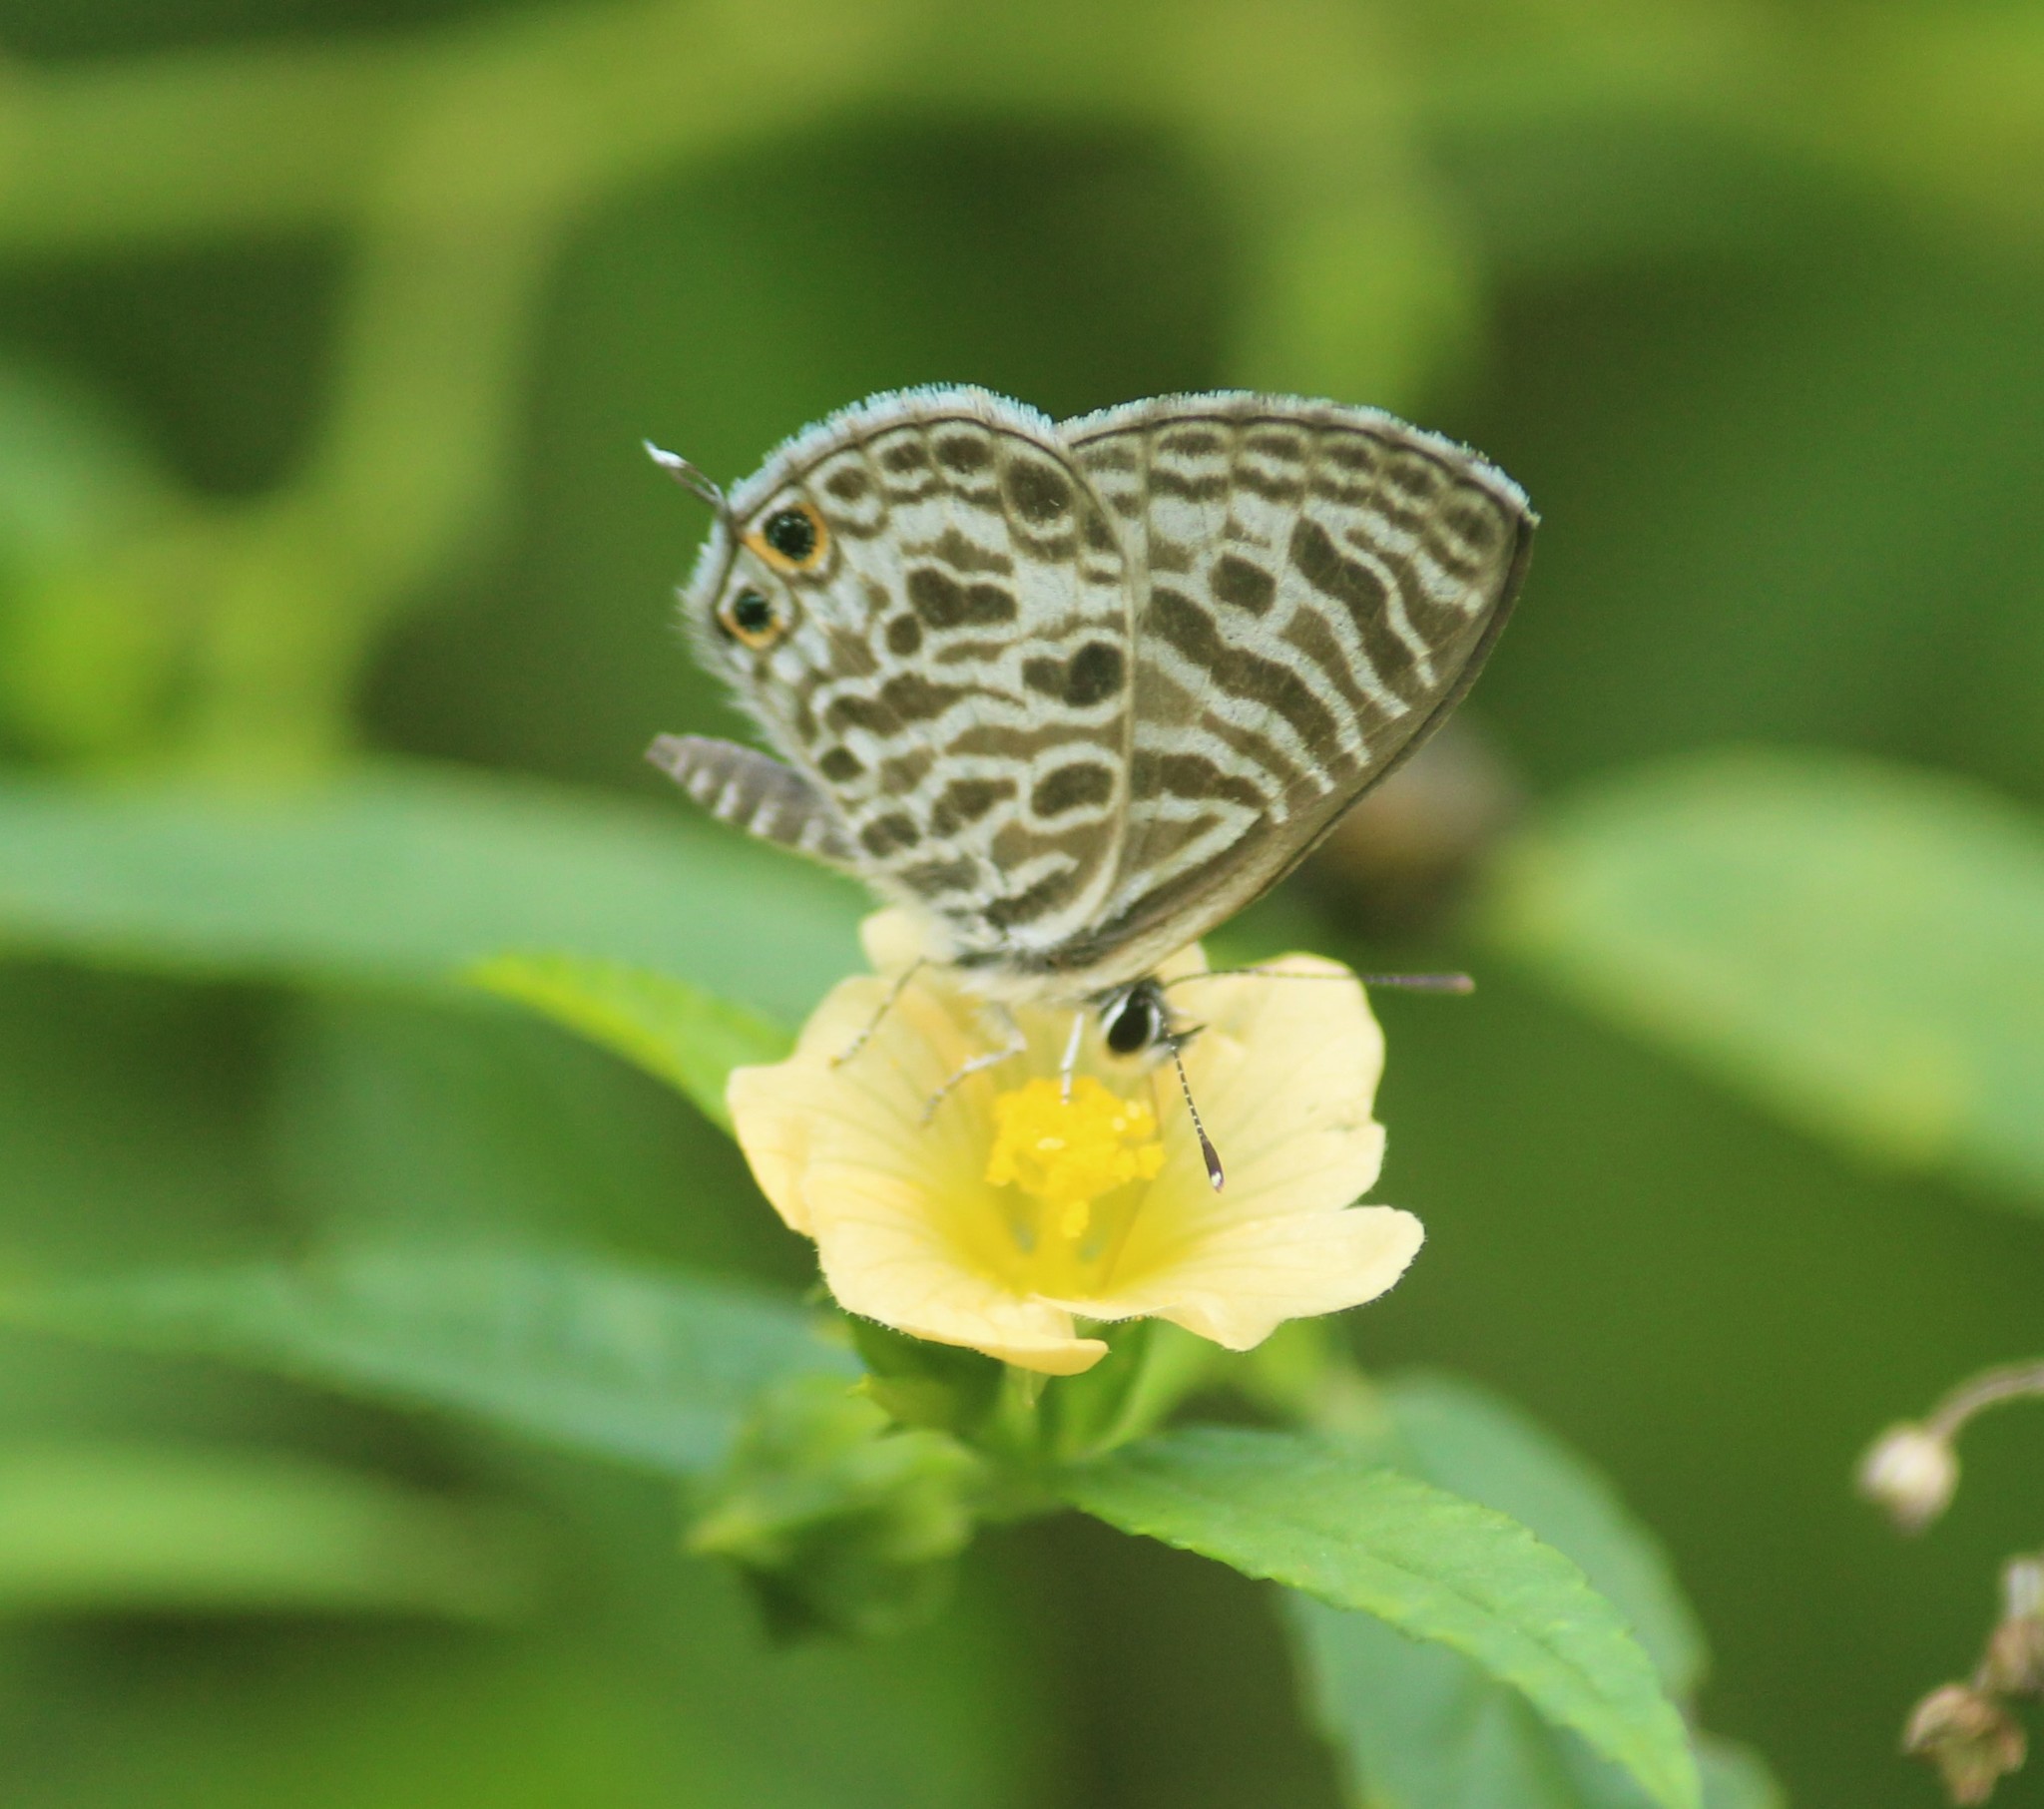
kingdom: Animalia
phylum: Arthropoda
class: Insecta
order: Lepidoptera
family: Lycaenidae
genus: Leptotes
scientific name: Leptotes plinius
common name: Zebra blue
